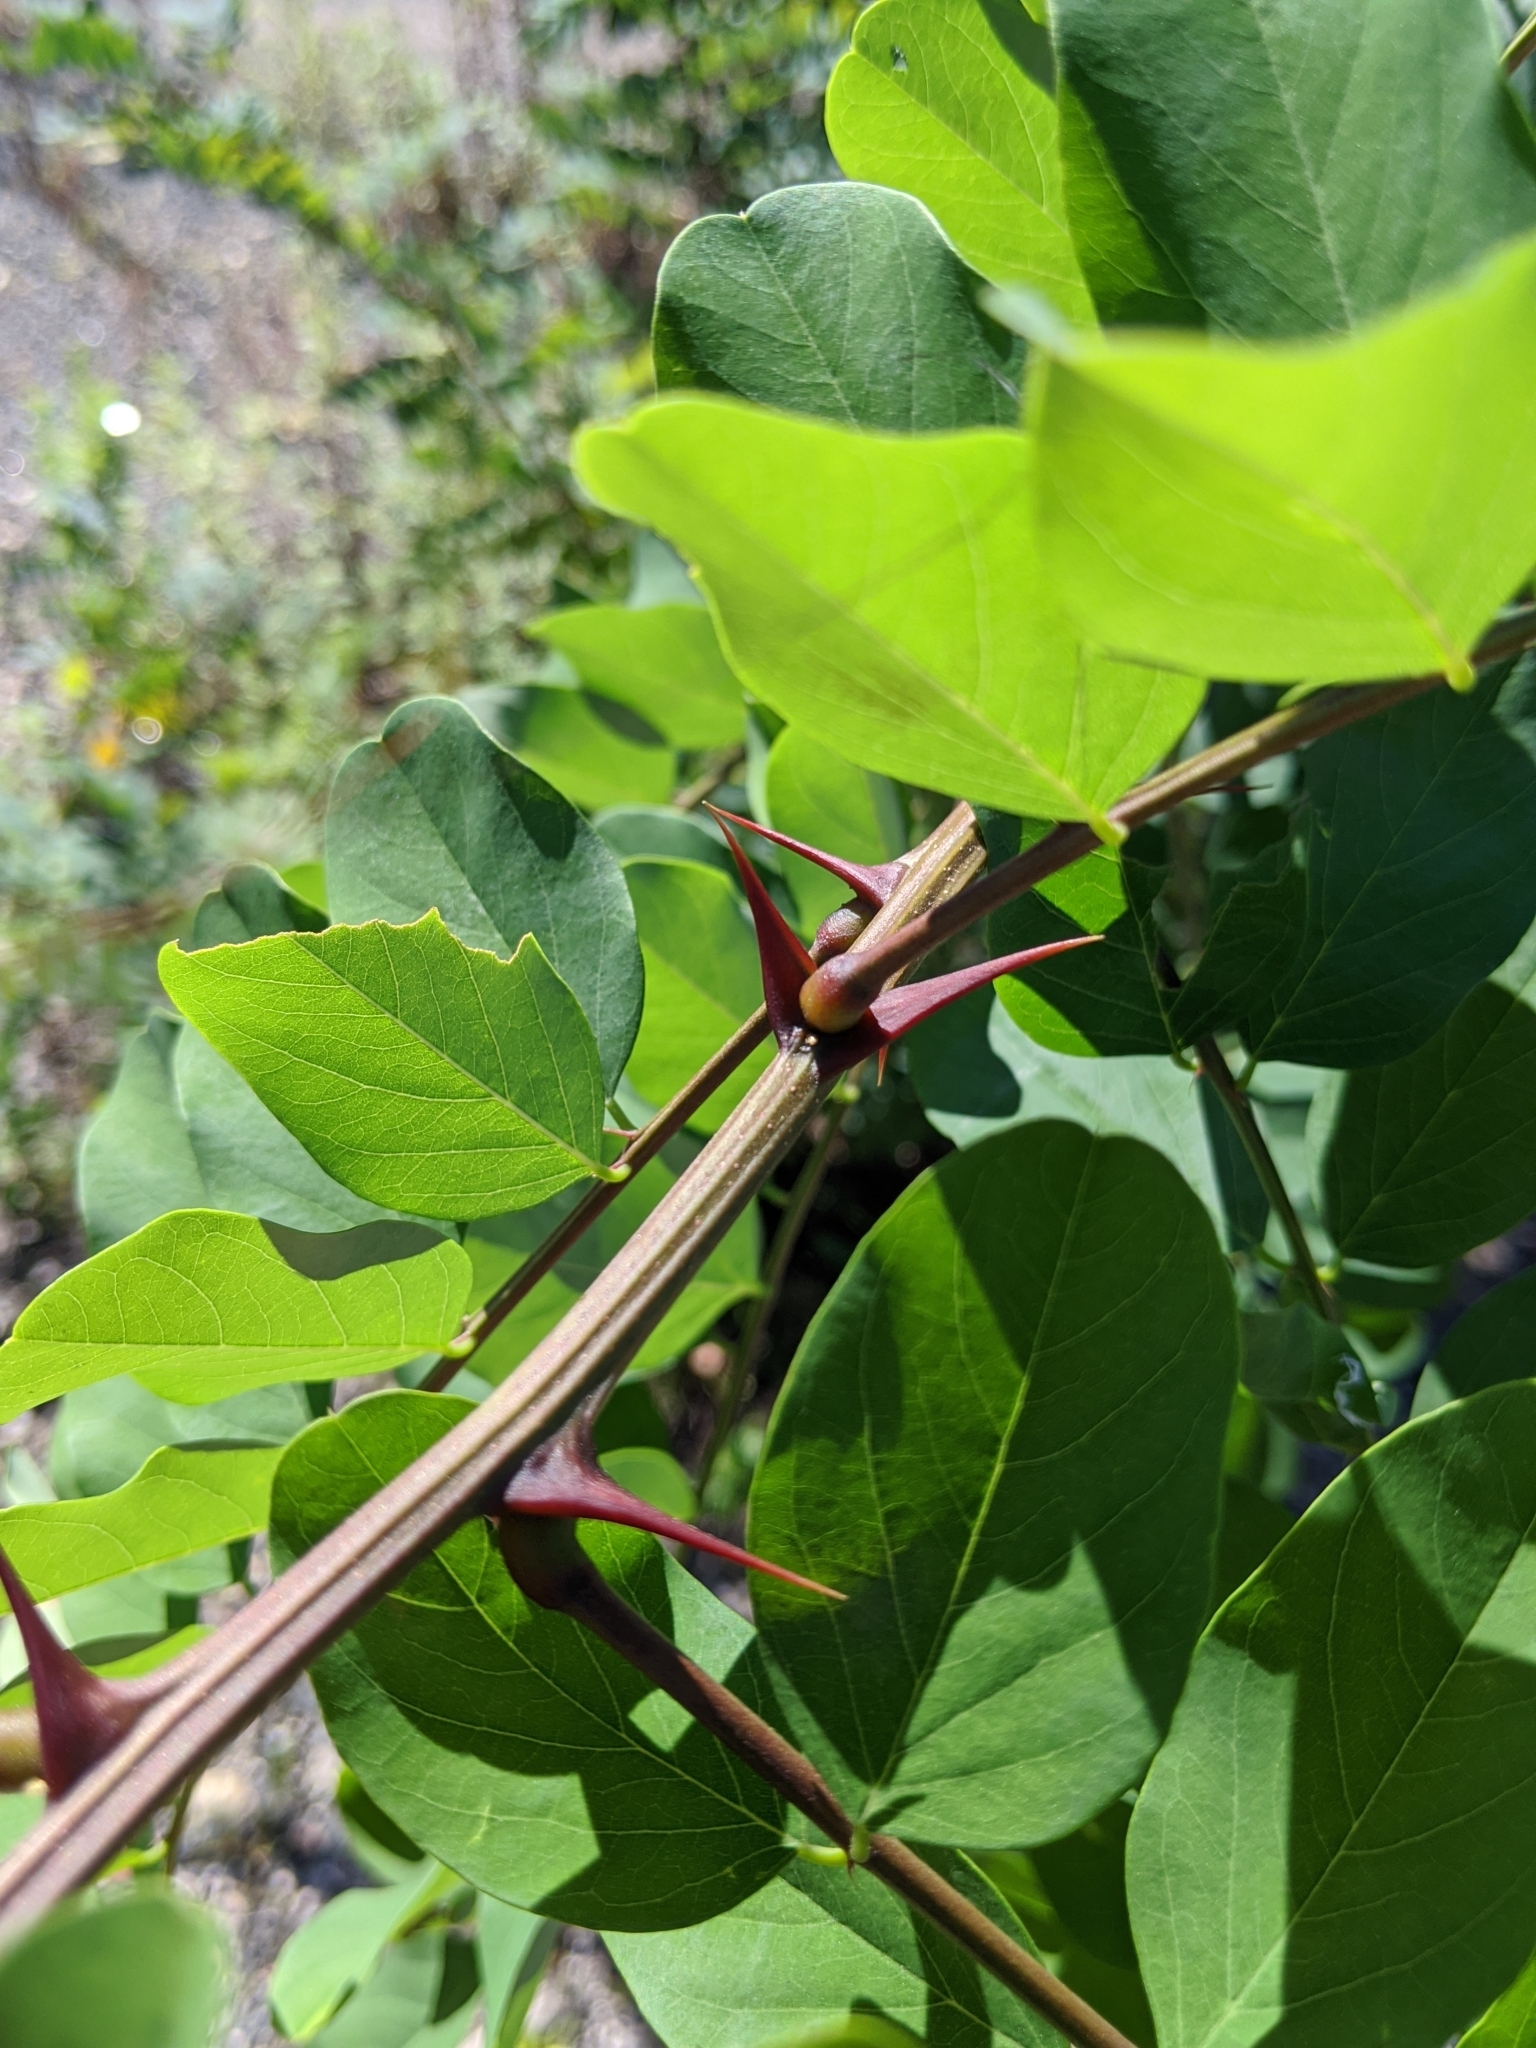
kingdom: Plantae
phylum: Tracheophyta
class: Magnoliopsida
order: Fabales
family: Fabaceae
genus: Robinia
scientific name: Robinia pseudoacacia
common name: Black locust
